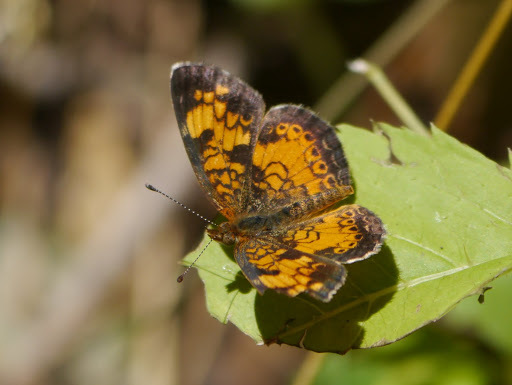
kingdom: Animalia
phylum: Arthropoda
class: Insecta
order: Lepidoptera
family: Nymphalidae
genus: Phyciodes
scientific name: Phyciodes tharos
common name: Pearl crescent
